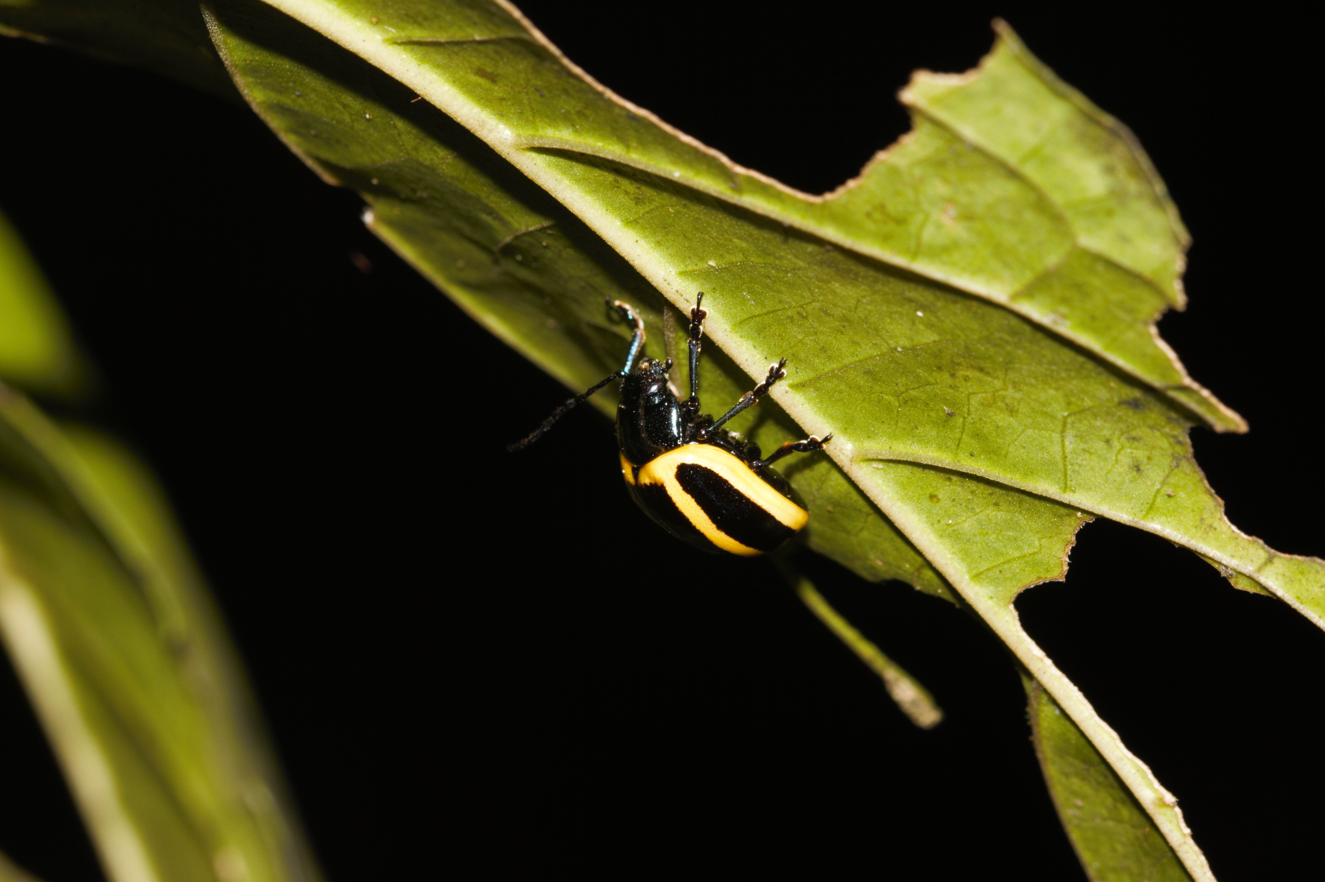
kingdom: Animalia
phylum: Arthropoda
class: Insecta
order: Coleoptera
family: Chrysomelidae
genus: Proseicela
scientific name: Proseicela vittata
